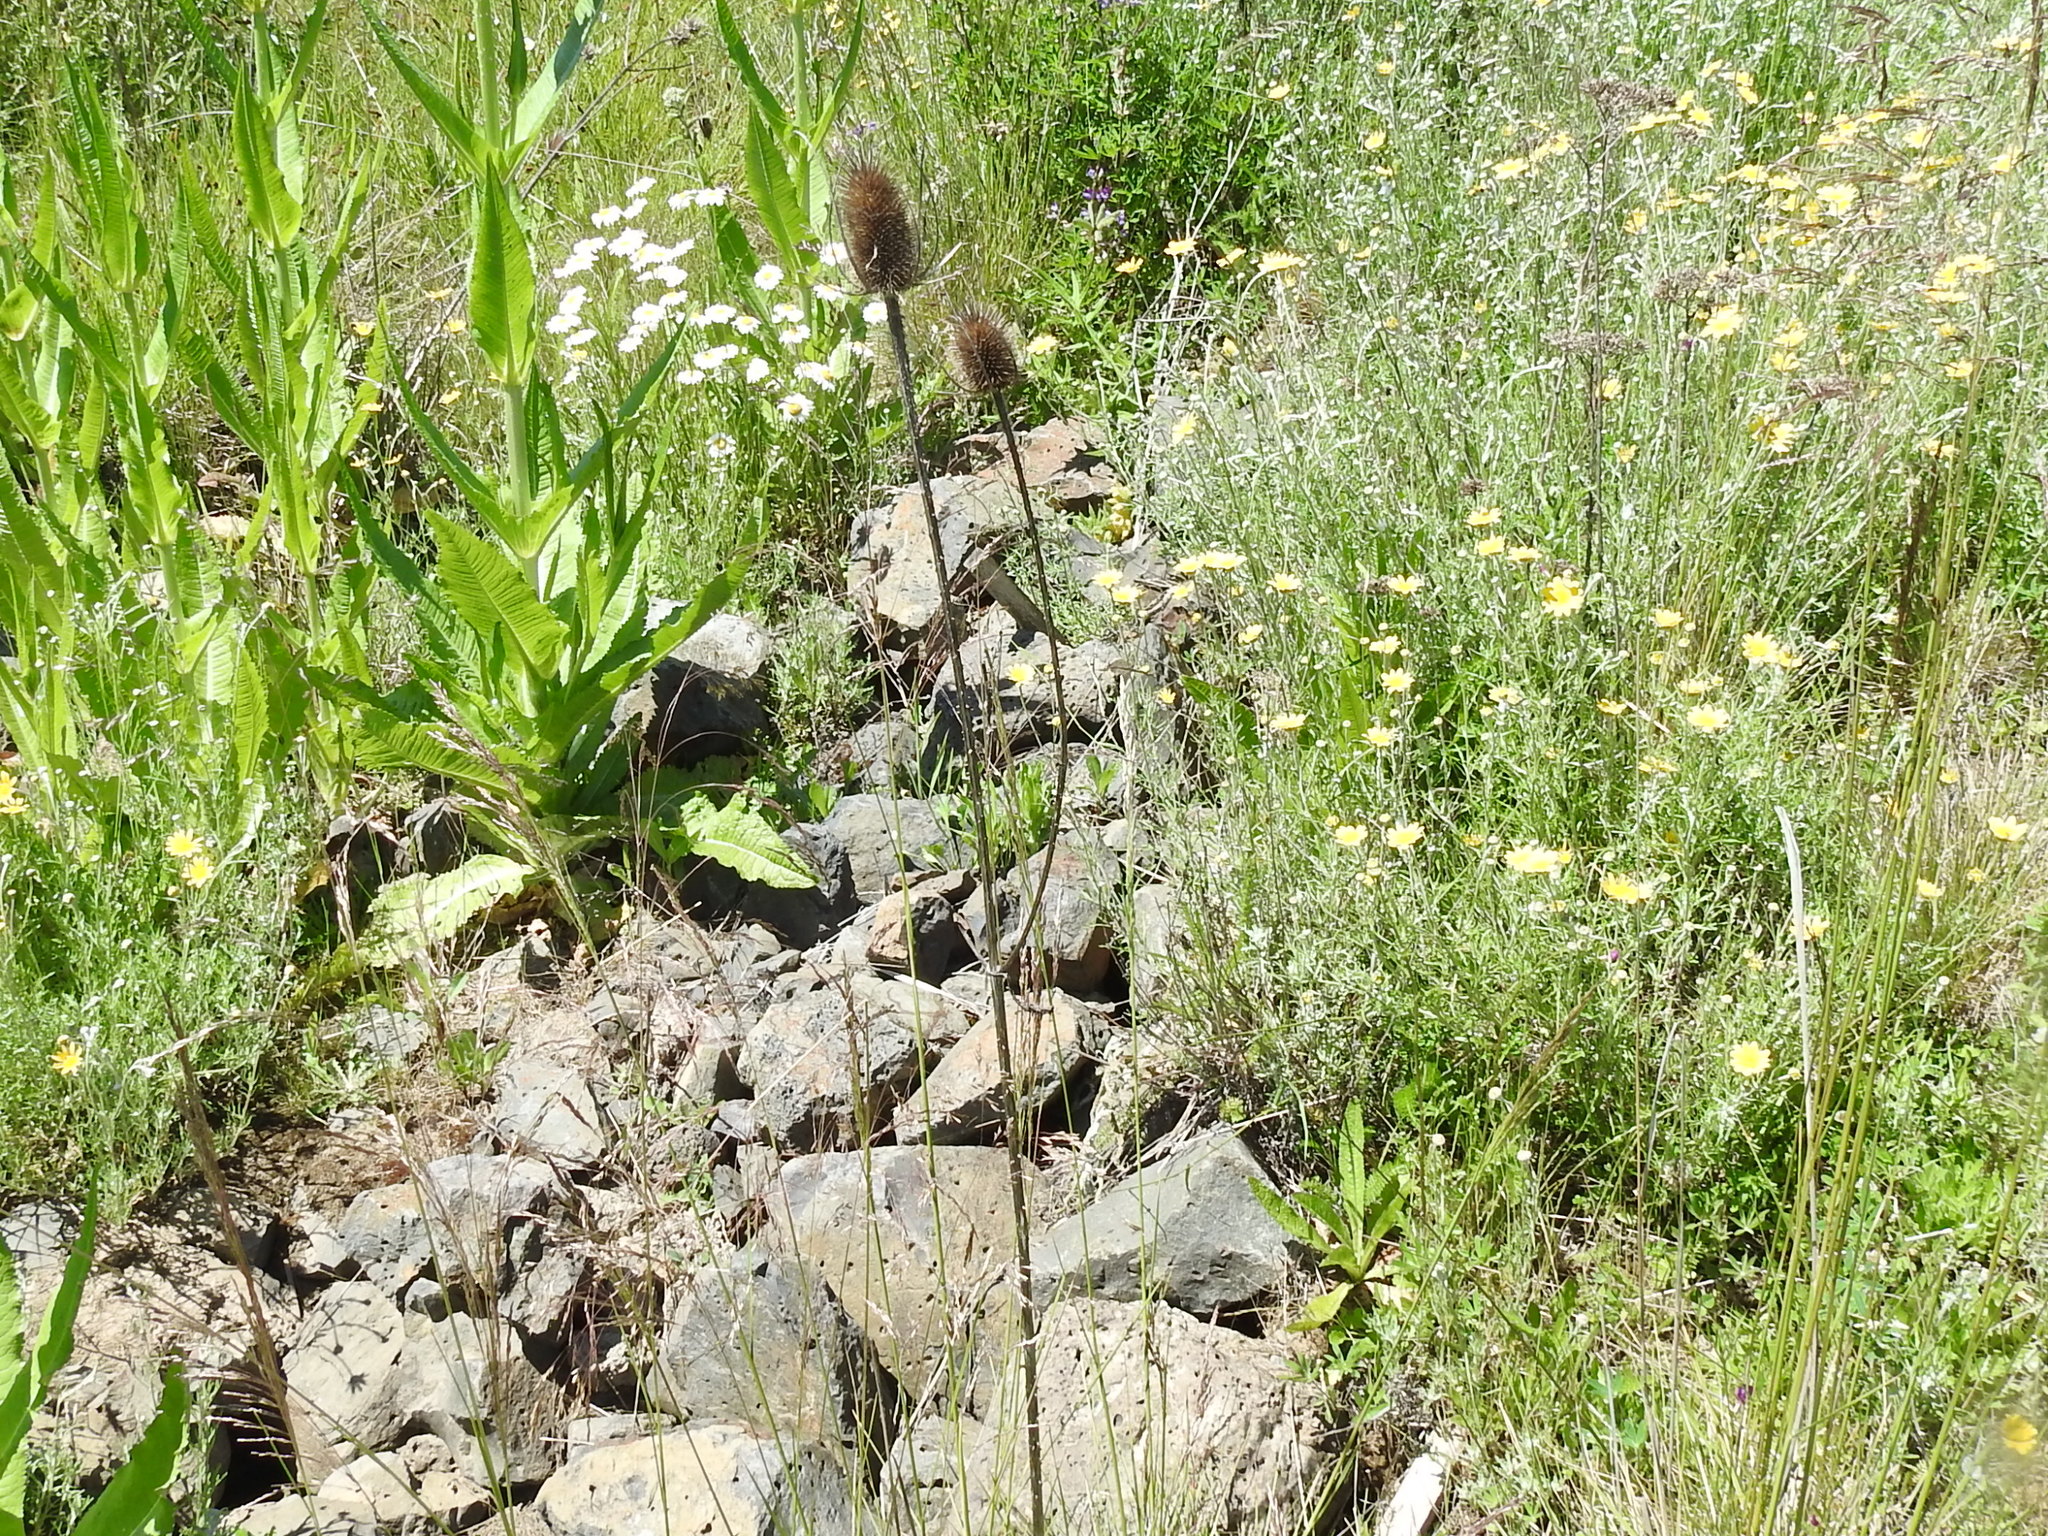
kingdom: Plantae
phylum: Tracheophyta
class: Magnoliopsida
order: Dipsacales
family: Caprifoliaceae
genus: Dipsacus
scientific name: Dipsacus fullonum
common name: Teasel
